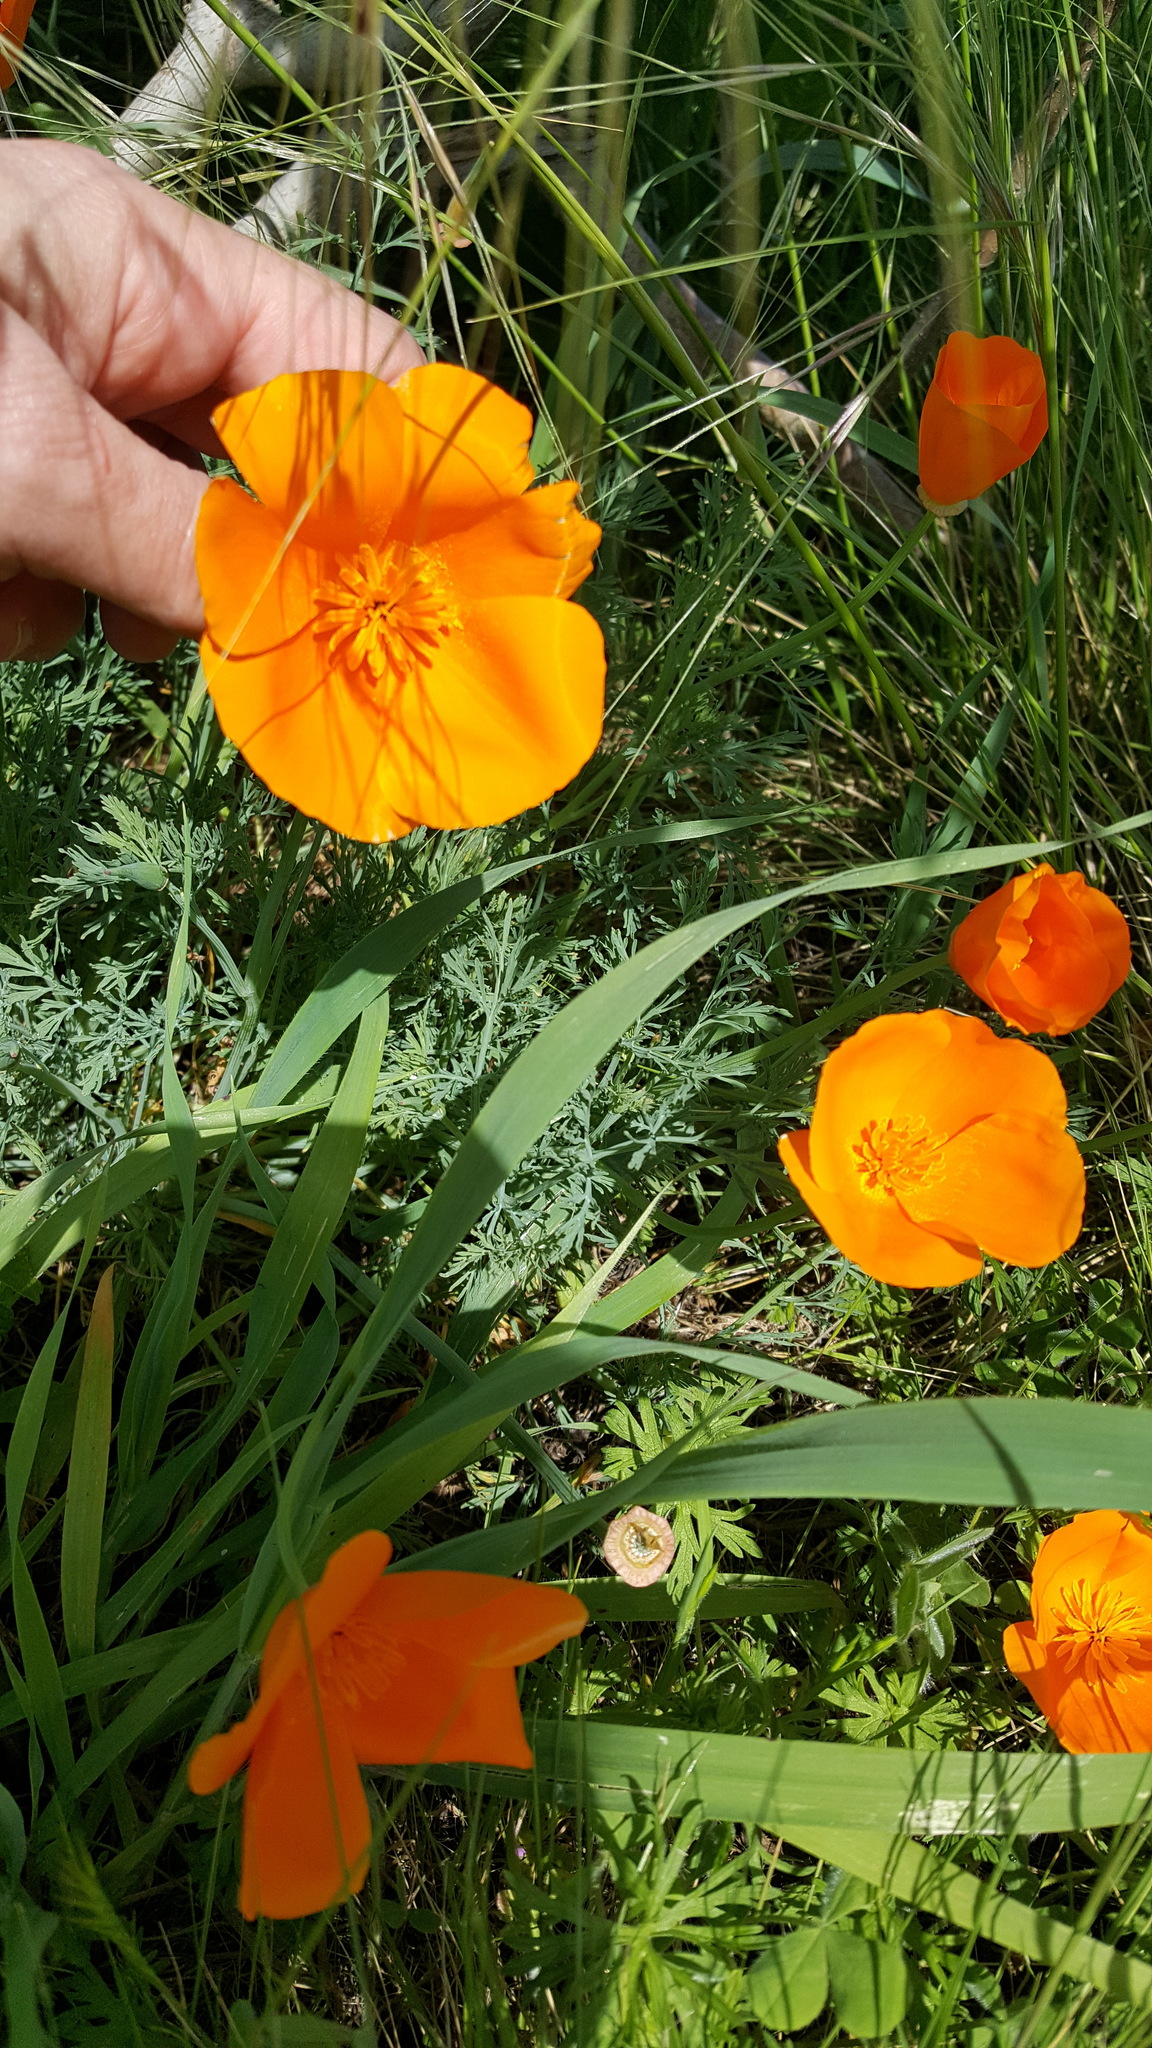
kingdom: Plantae
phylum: Tracheophyta
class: Magnoliopsida
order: Ranunculales
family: Papaveraceae
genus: Eschscholzia
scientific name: Eschscholzia californica
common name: California poppy
